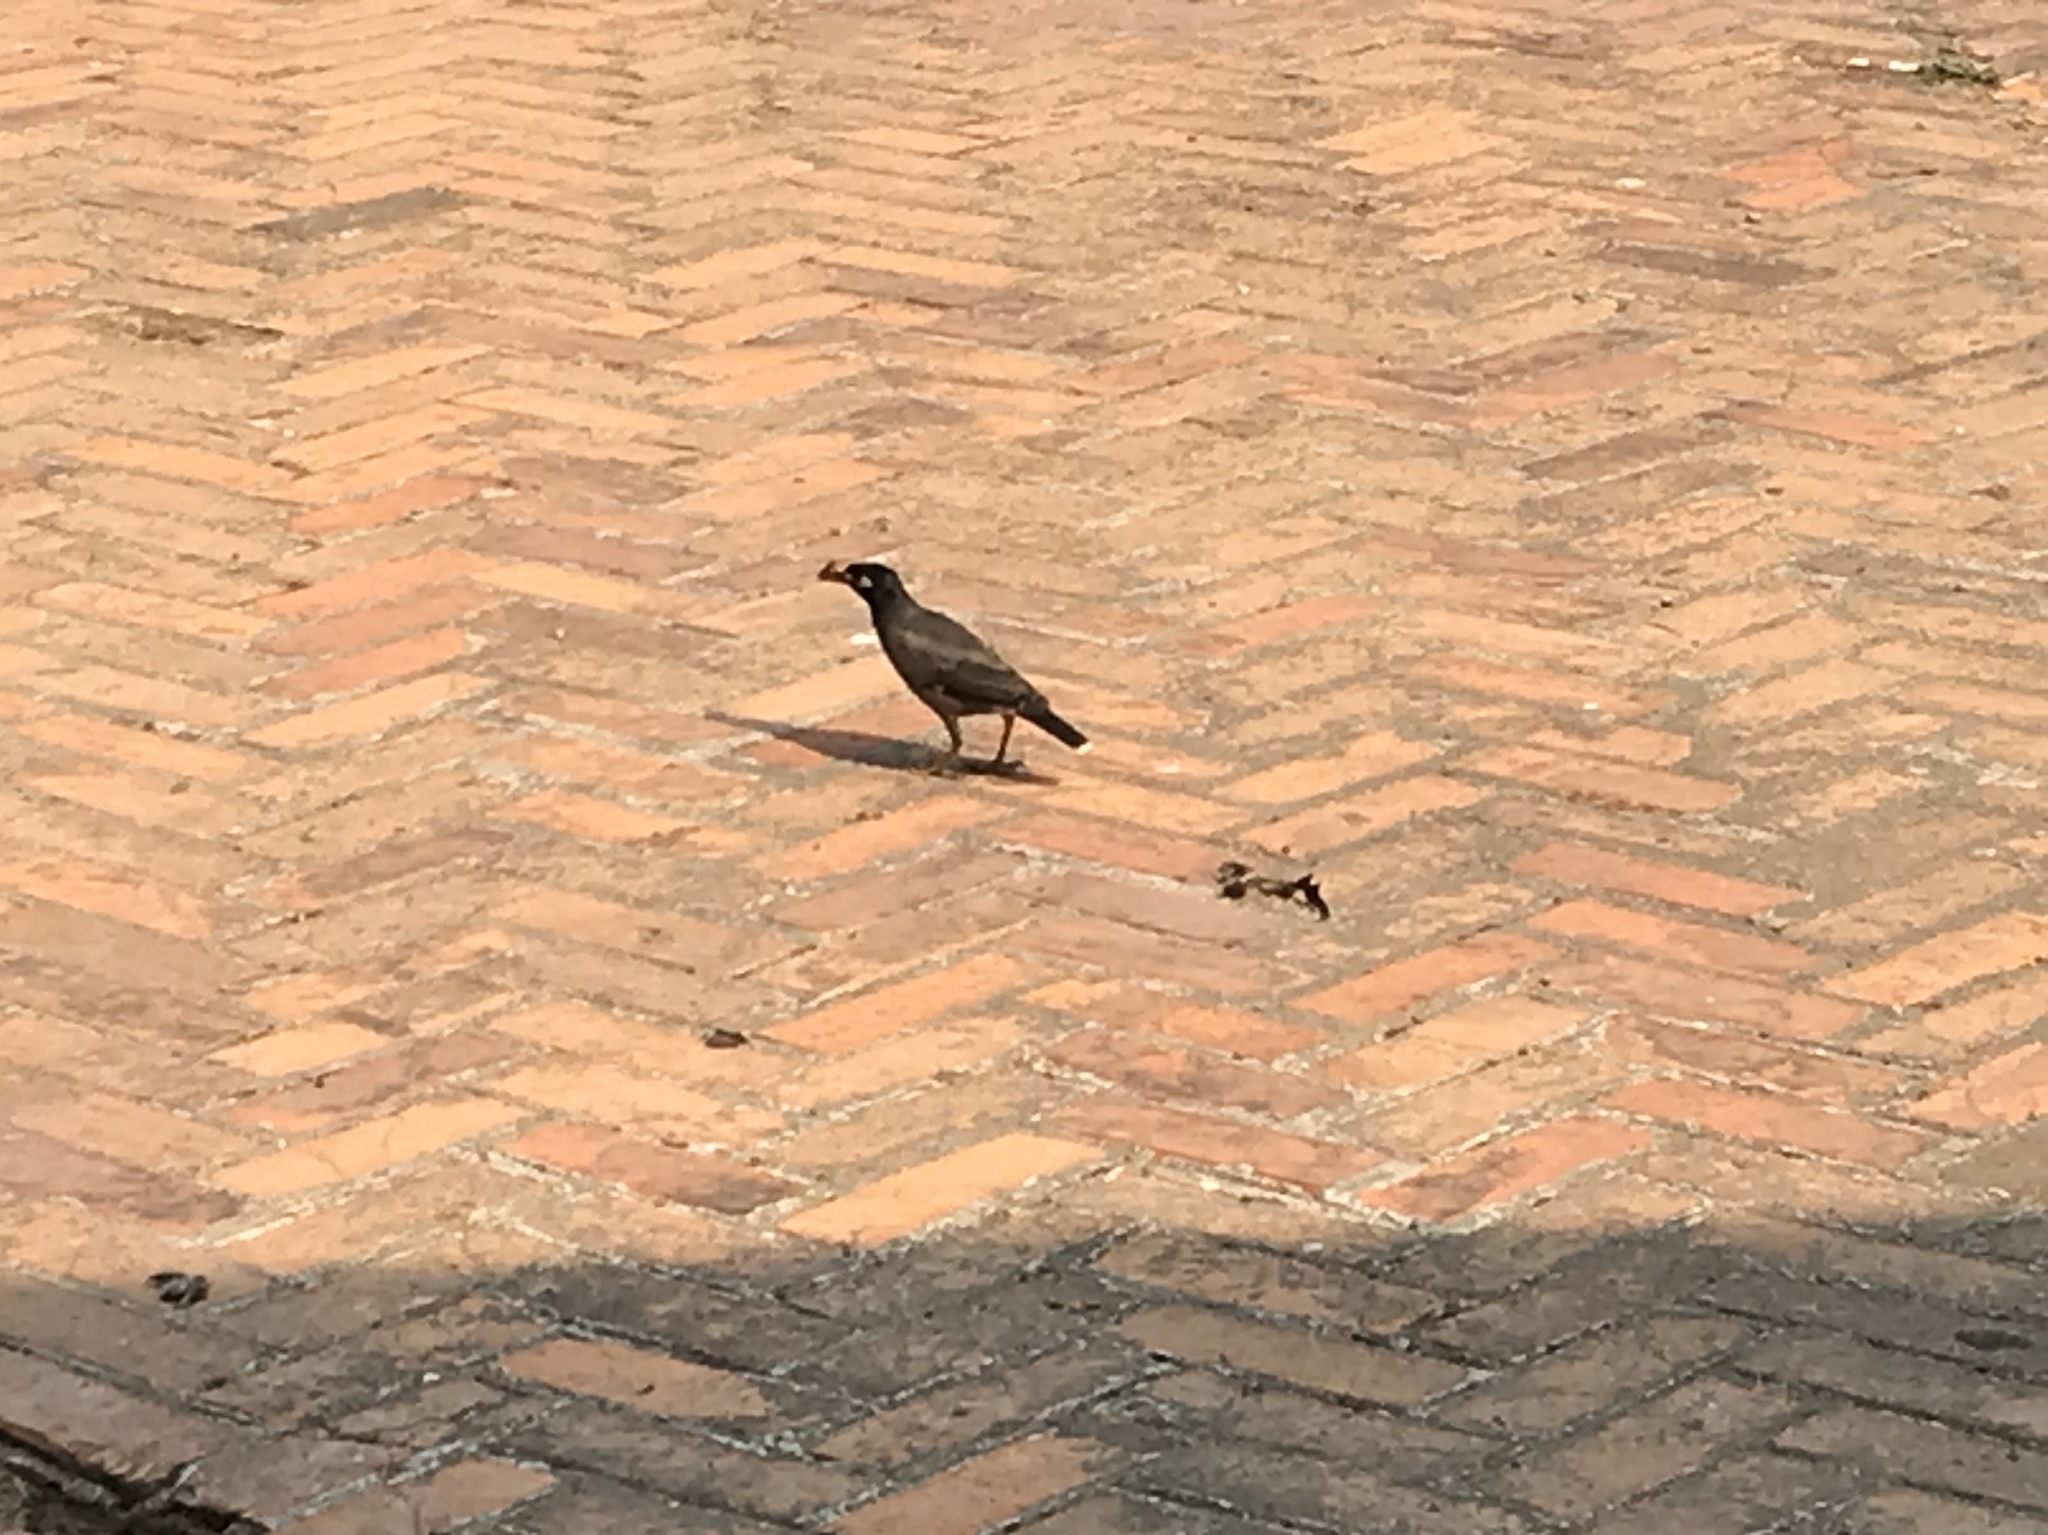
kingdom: Animalia
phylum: Chordata
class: Aves
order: Passeriformes
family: Sturnidae
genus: Acridotheres
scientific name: Acridotheres tristis
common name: Common myna
